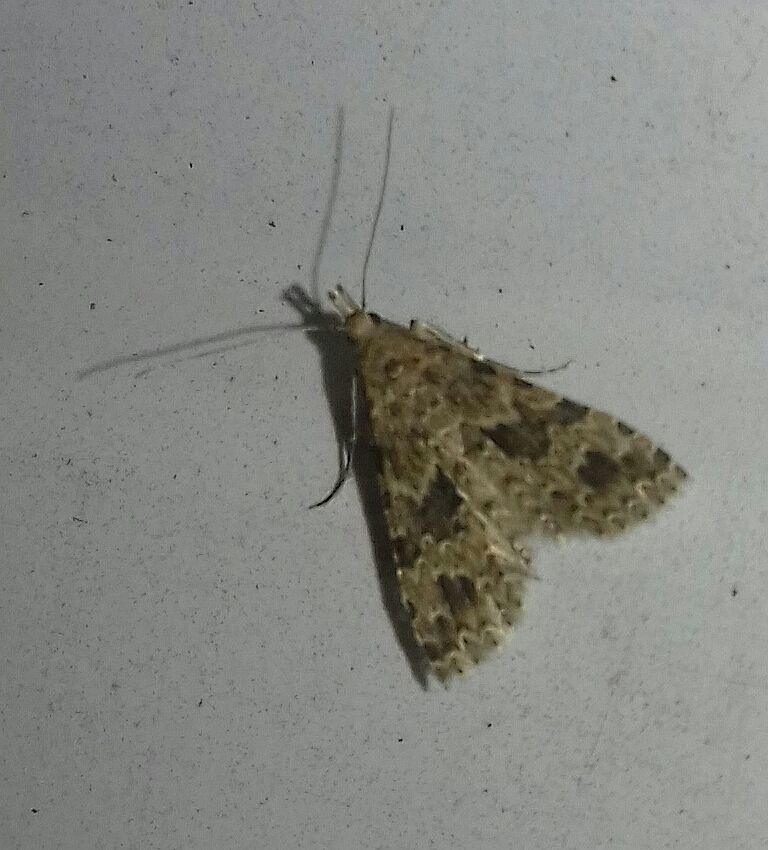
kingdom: Animalia
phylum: Arthropoda
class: Insecta
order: Lepidoptera
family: Alucitidae
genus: Alucita
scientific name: Alucita hexadactyla
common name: Twenty-plume moth
